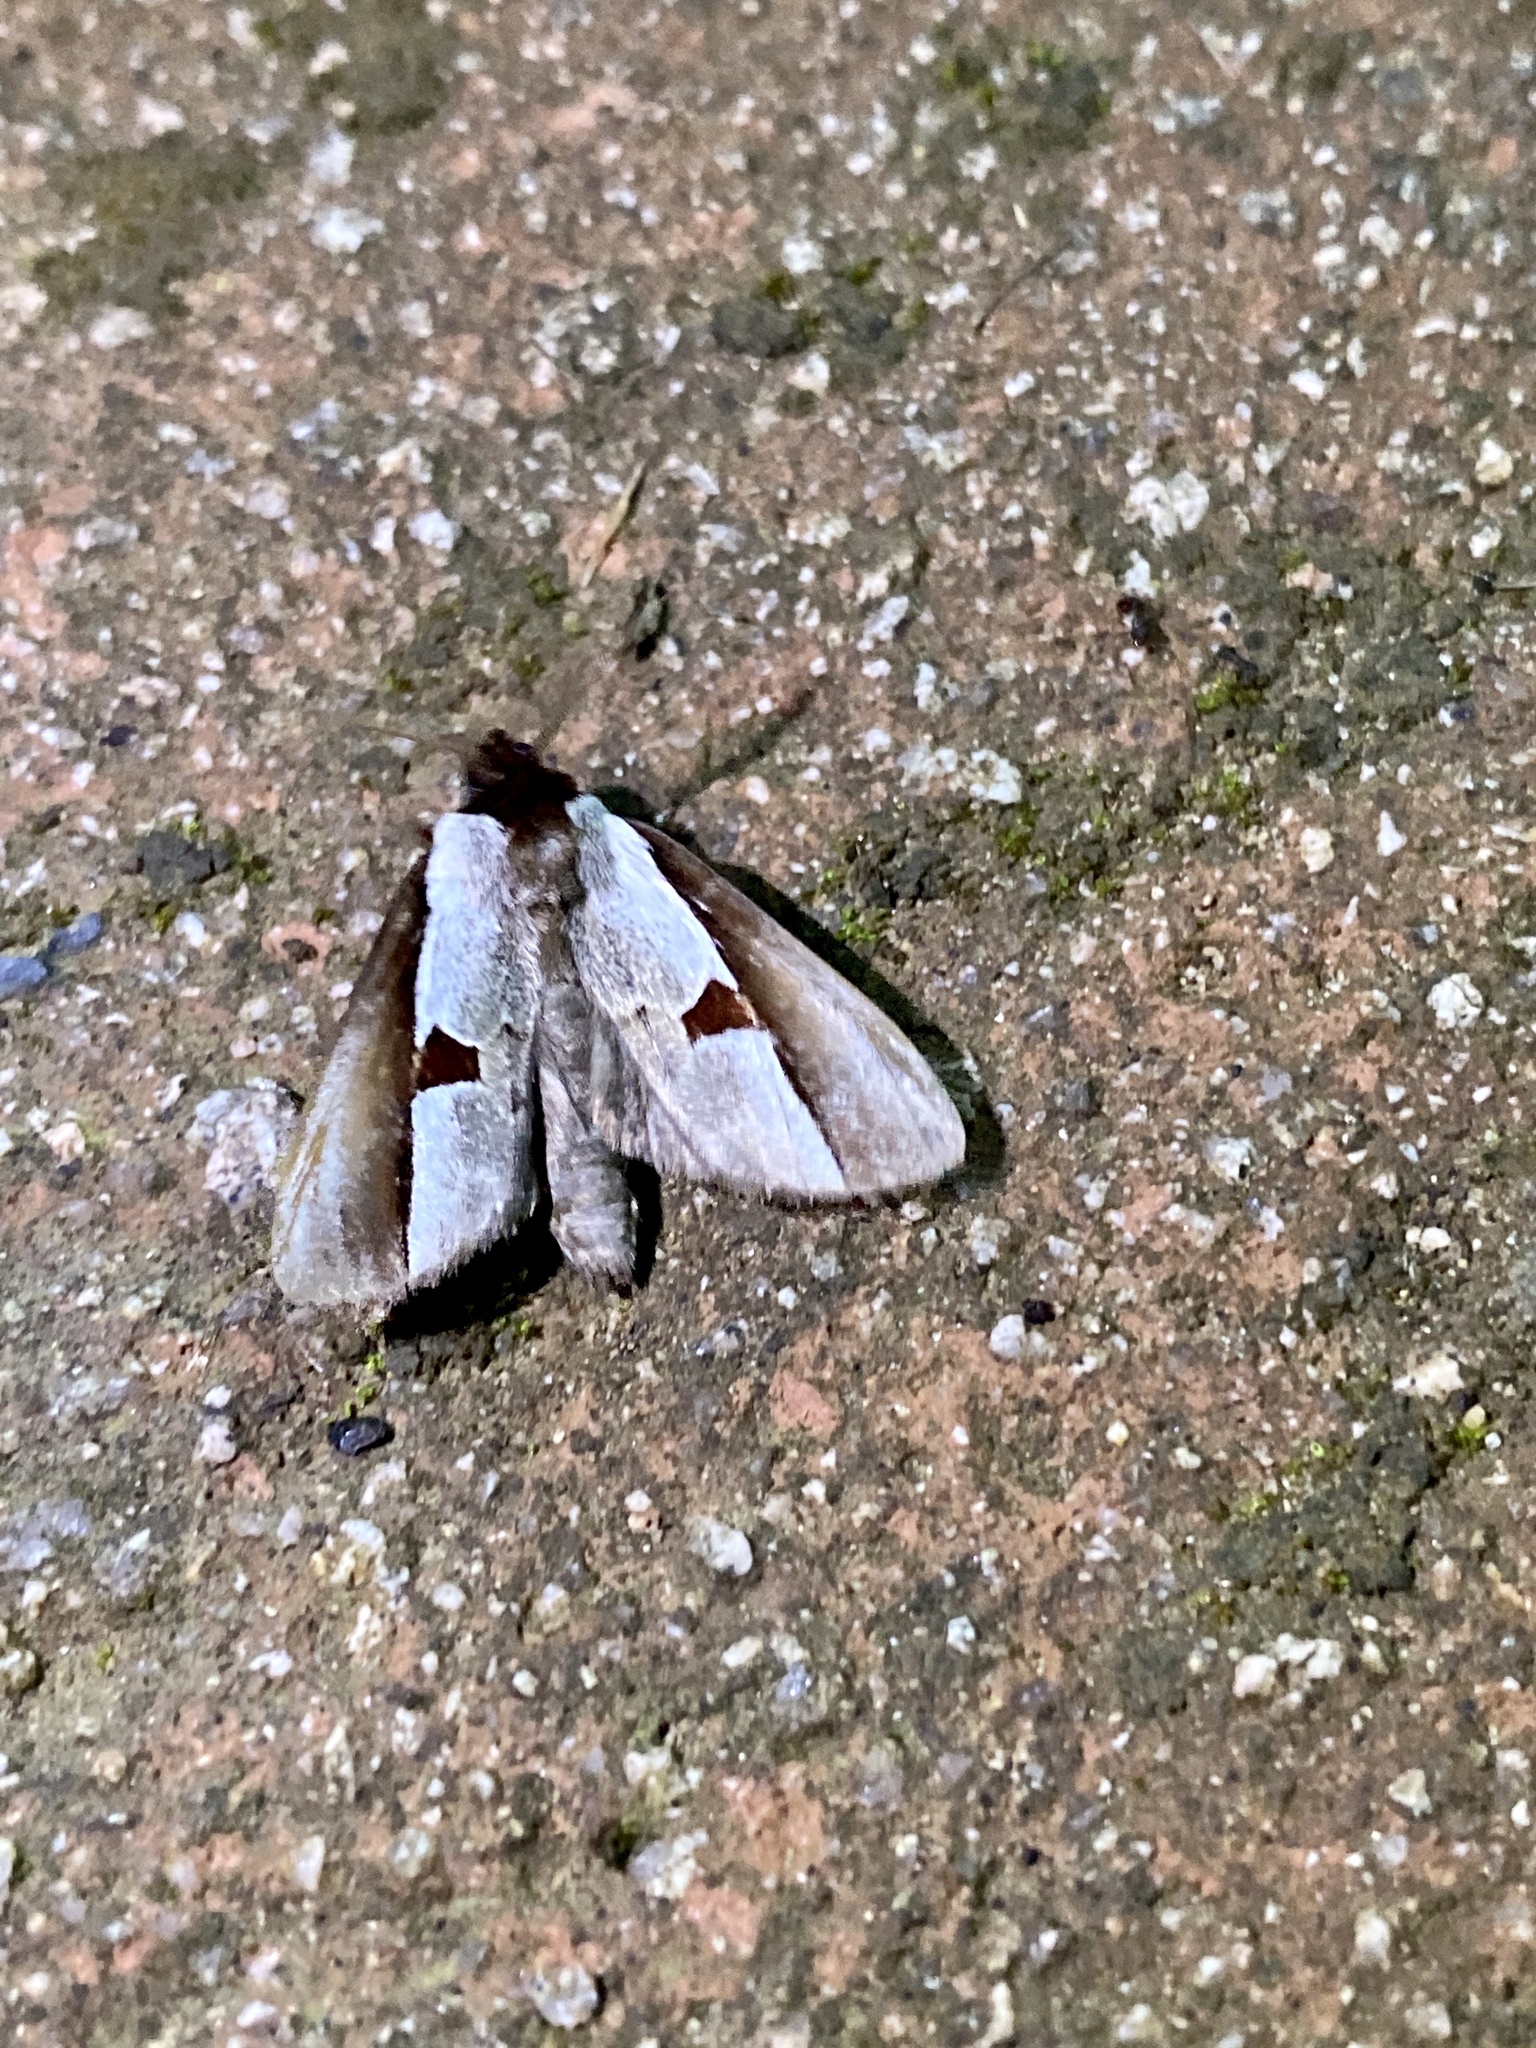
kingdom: Animalia
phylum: Arthropoda
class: Insecta
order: Lepidoptera
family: Notodontidae
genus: Nerice
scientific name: Nerice bipartita
